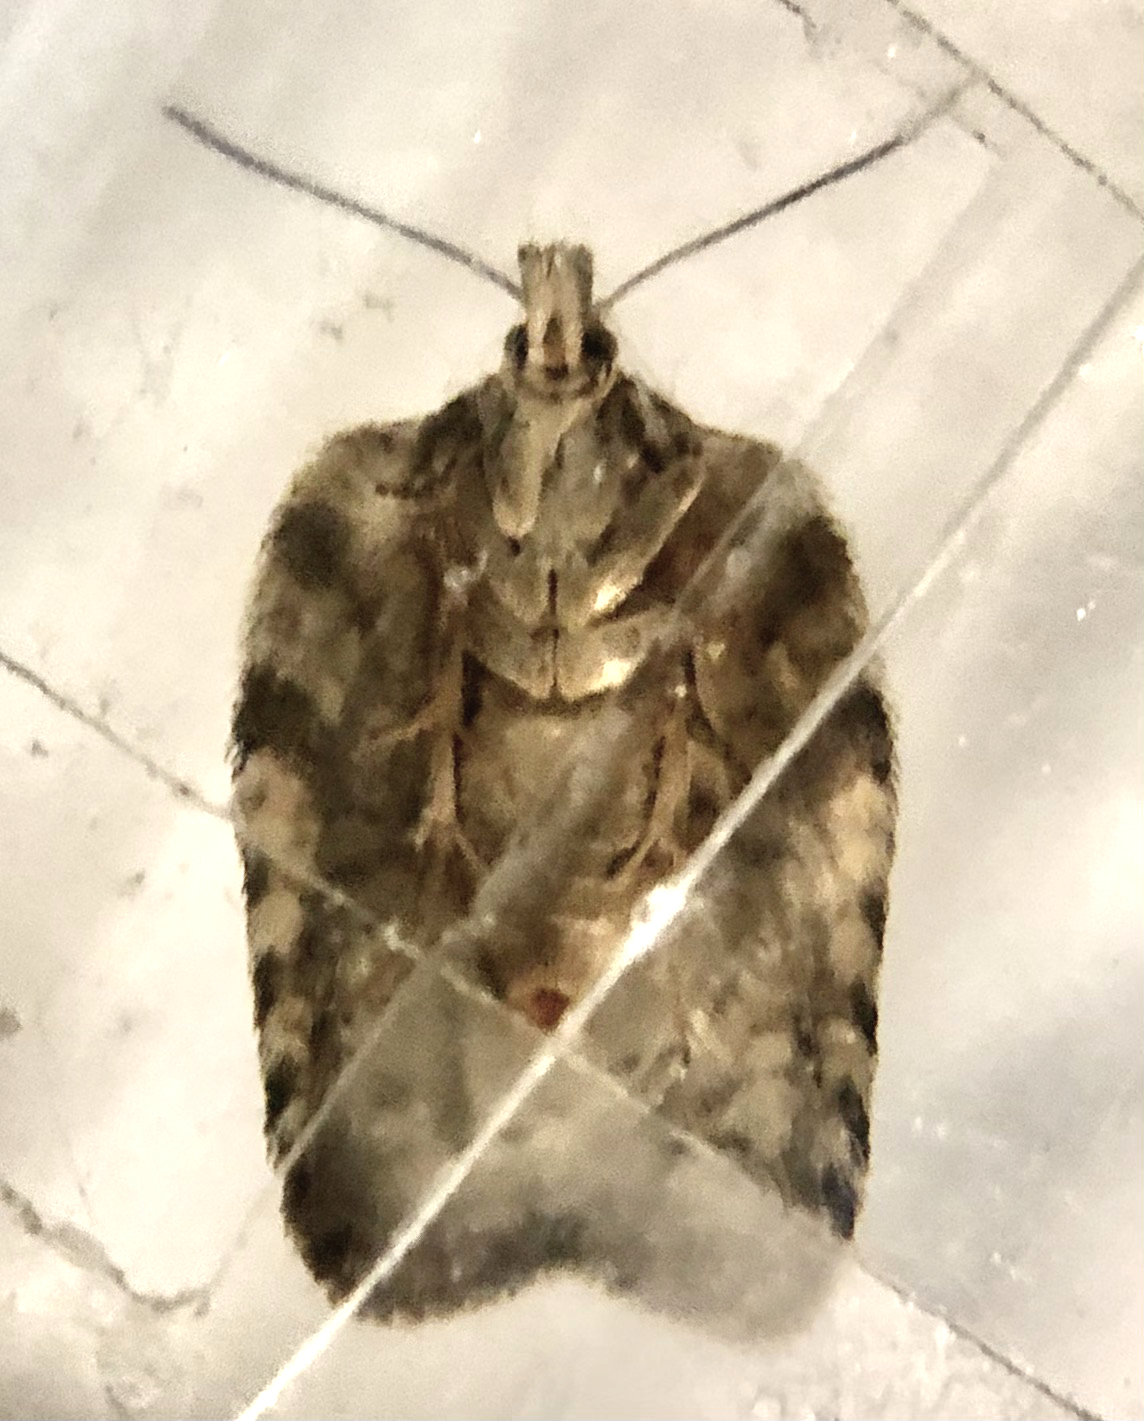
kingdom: Animalia
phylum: Arthropoda
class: Insecta
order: Lepidoptera
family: Tortricidae
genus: Acleris
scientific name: Acleris chalybeana
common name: Lesser maple leafroller
